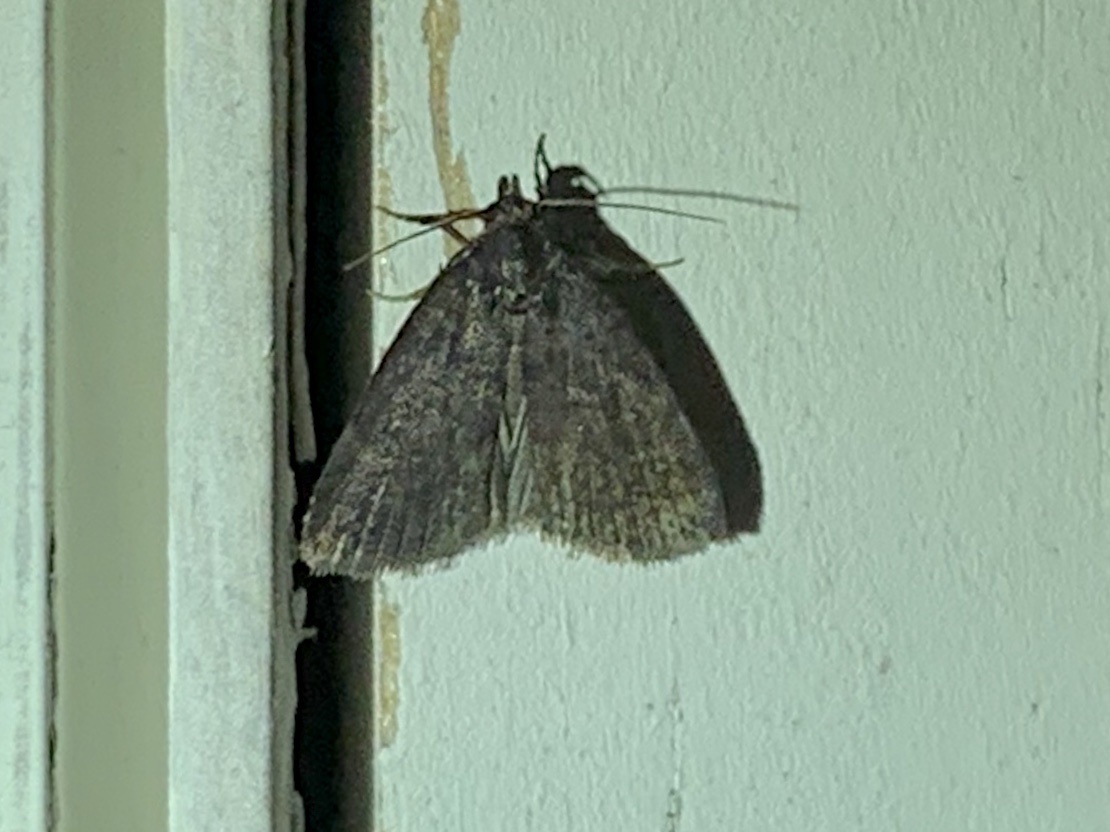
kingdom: Animalia
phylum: Arthropoda
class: Insecta
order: Lepidoptera
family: Erebidae
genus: Idia
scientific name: Idia rotundalis
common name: Rotund idia moth
